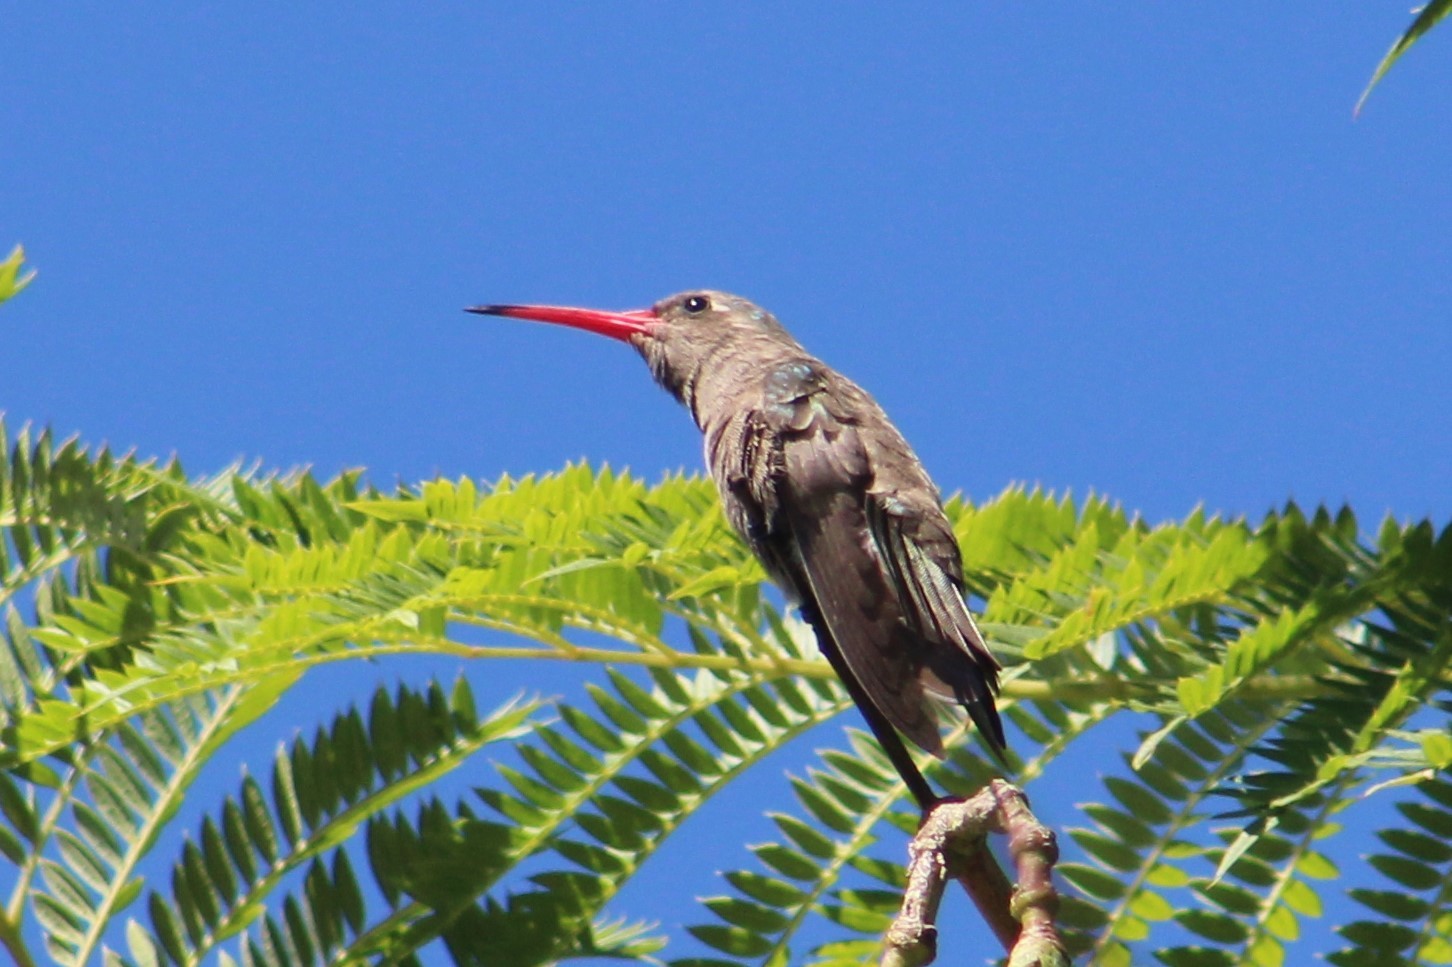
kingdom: Animalia
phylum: Chordata
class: Aves
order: Apodiformes
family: Trochilidae
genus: Phaeoptila
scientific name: Phaeoptila sordida
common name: Dusky hummingbird
